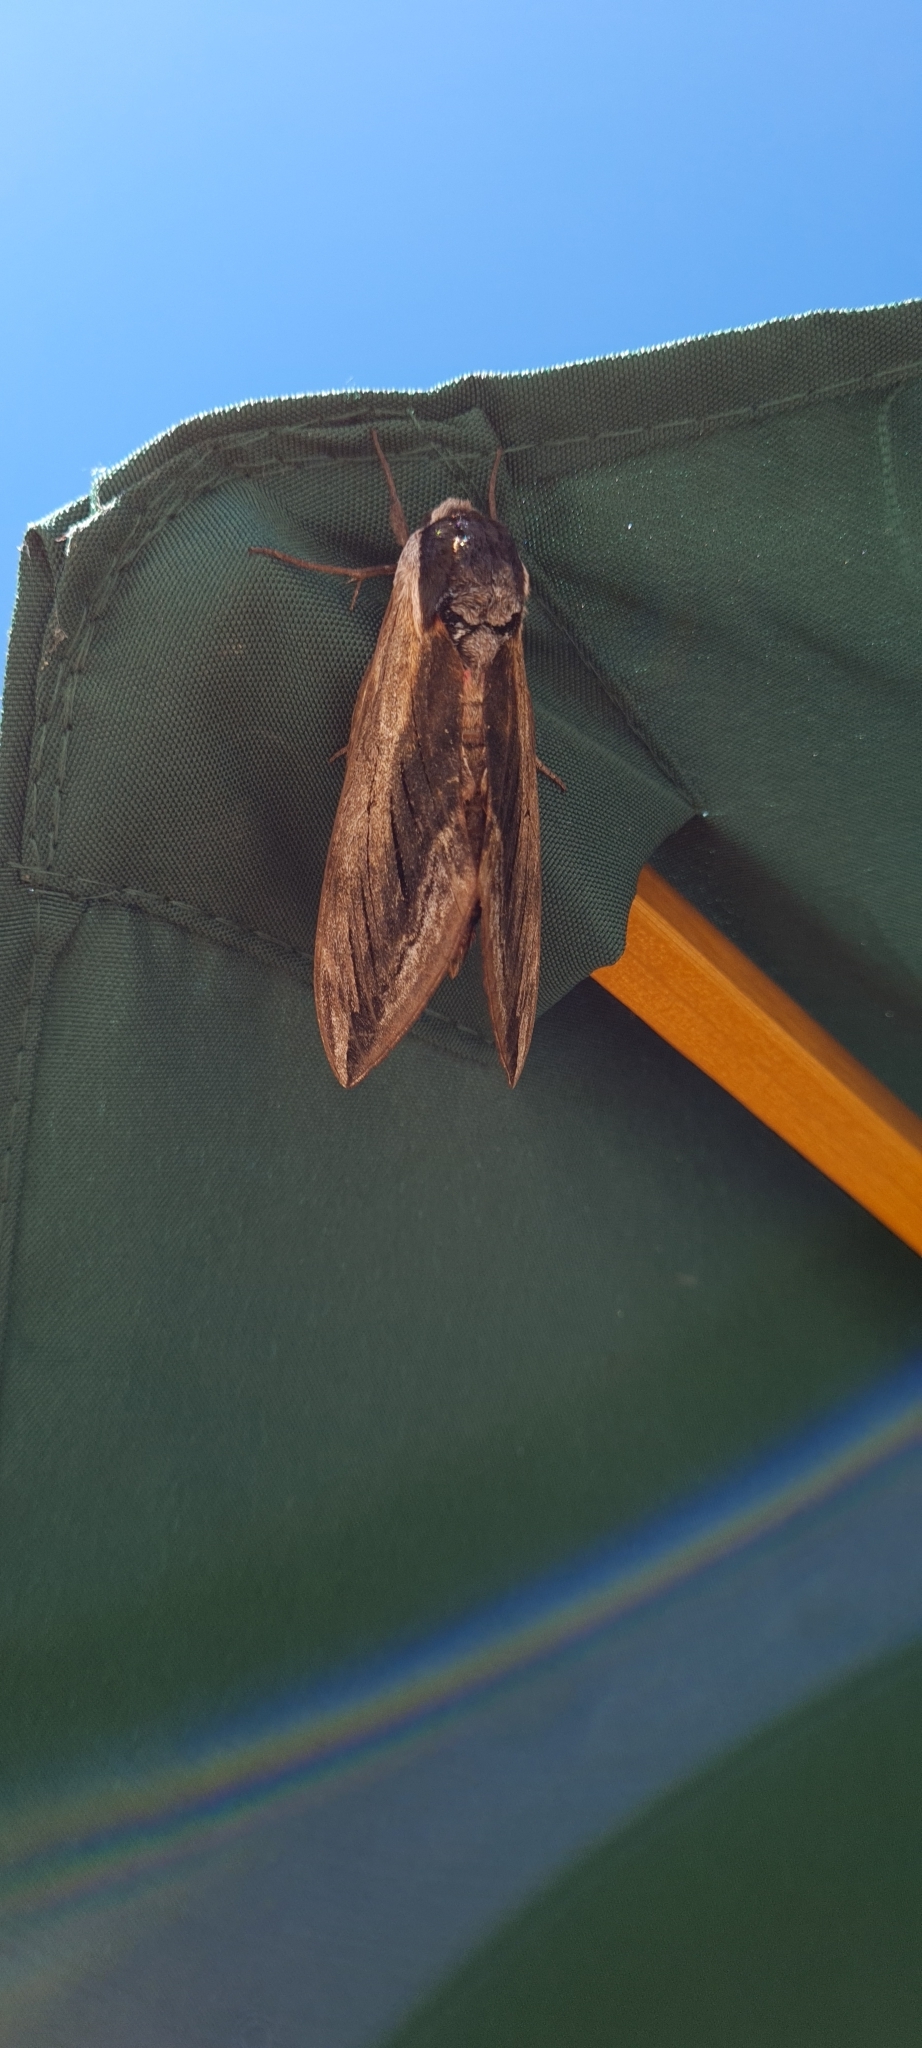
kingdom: Animalia
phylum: Arthropoda
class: Insecta
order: Lepidoptera
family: Sphingidae
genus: Sphinx
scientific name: Sphinx ligustri
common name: Privet hawk-moth
